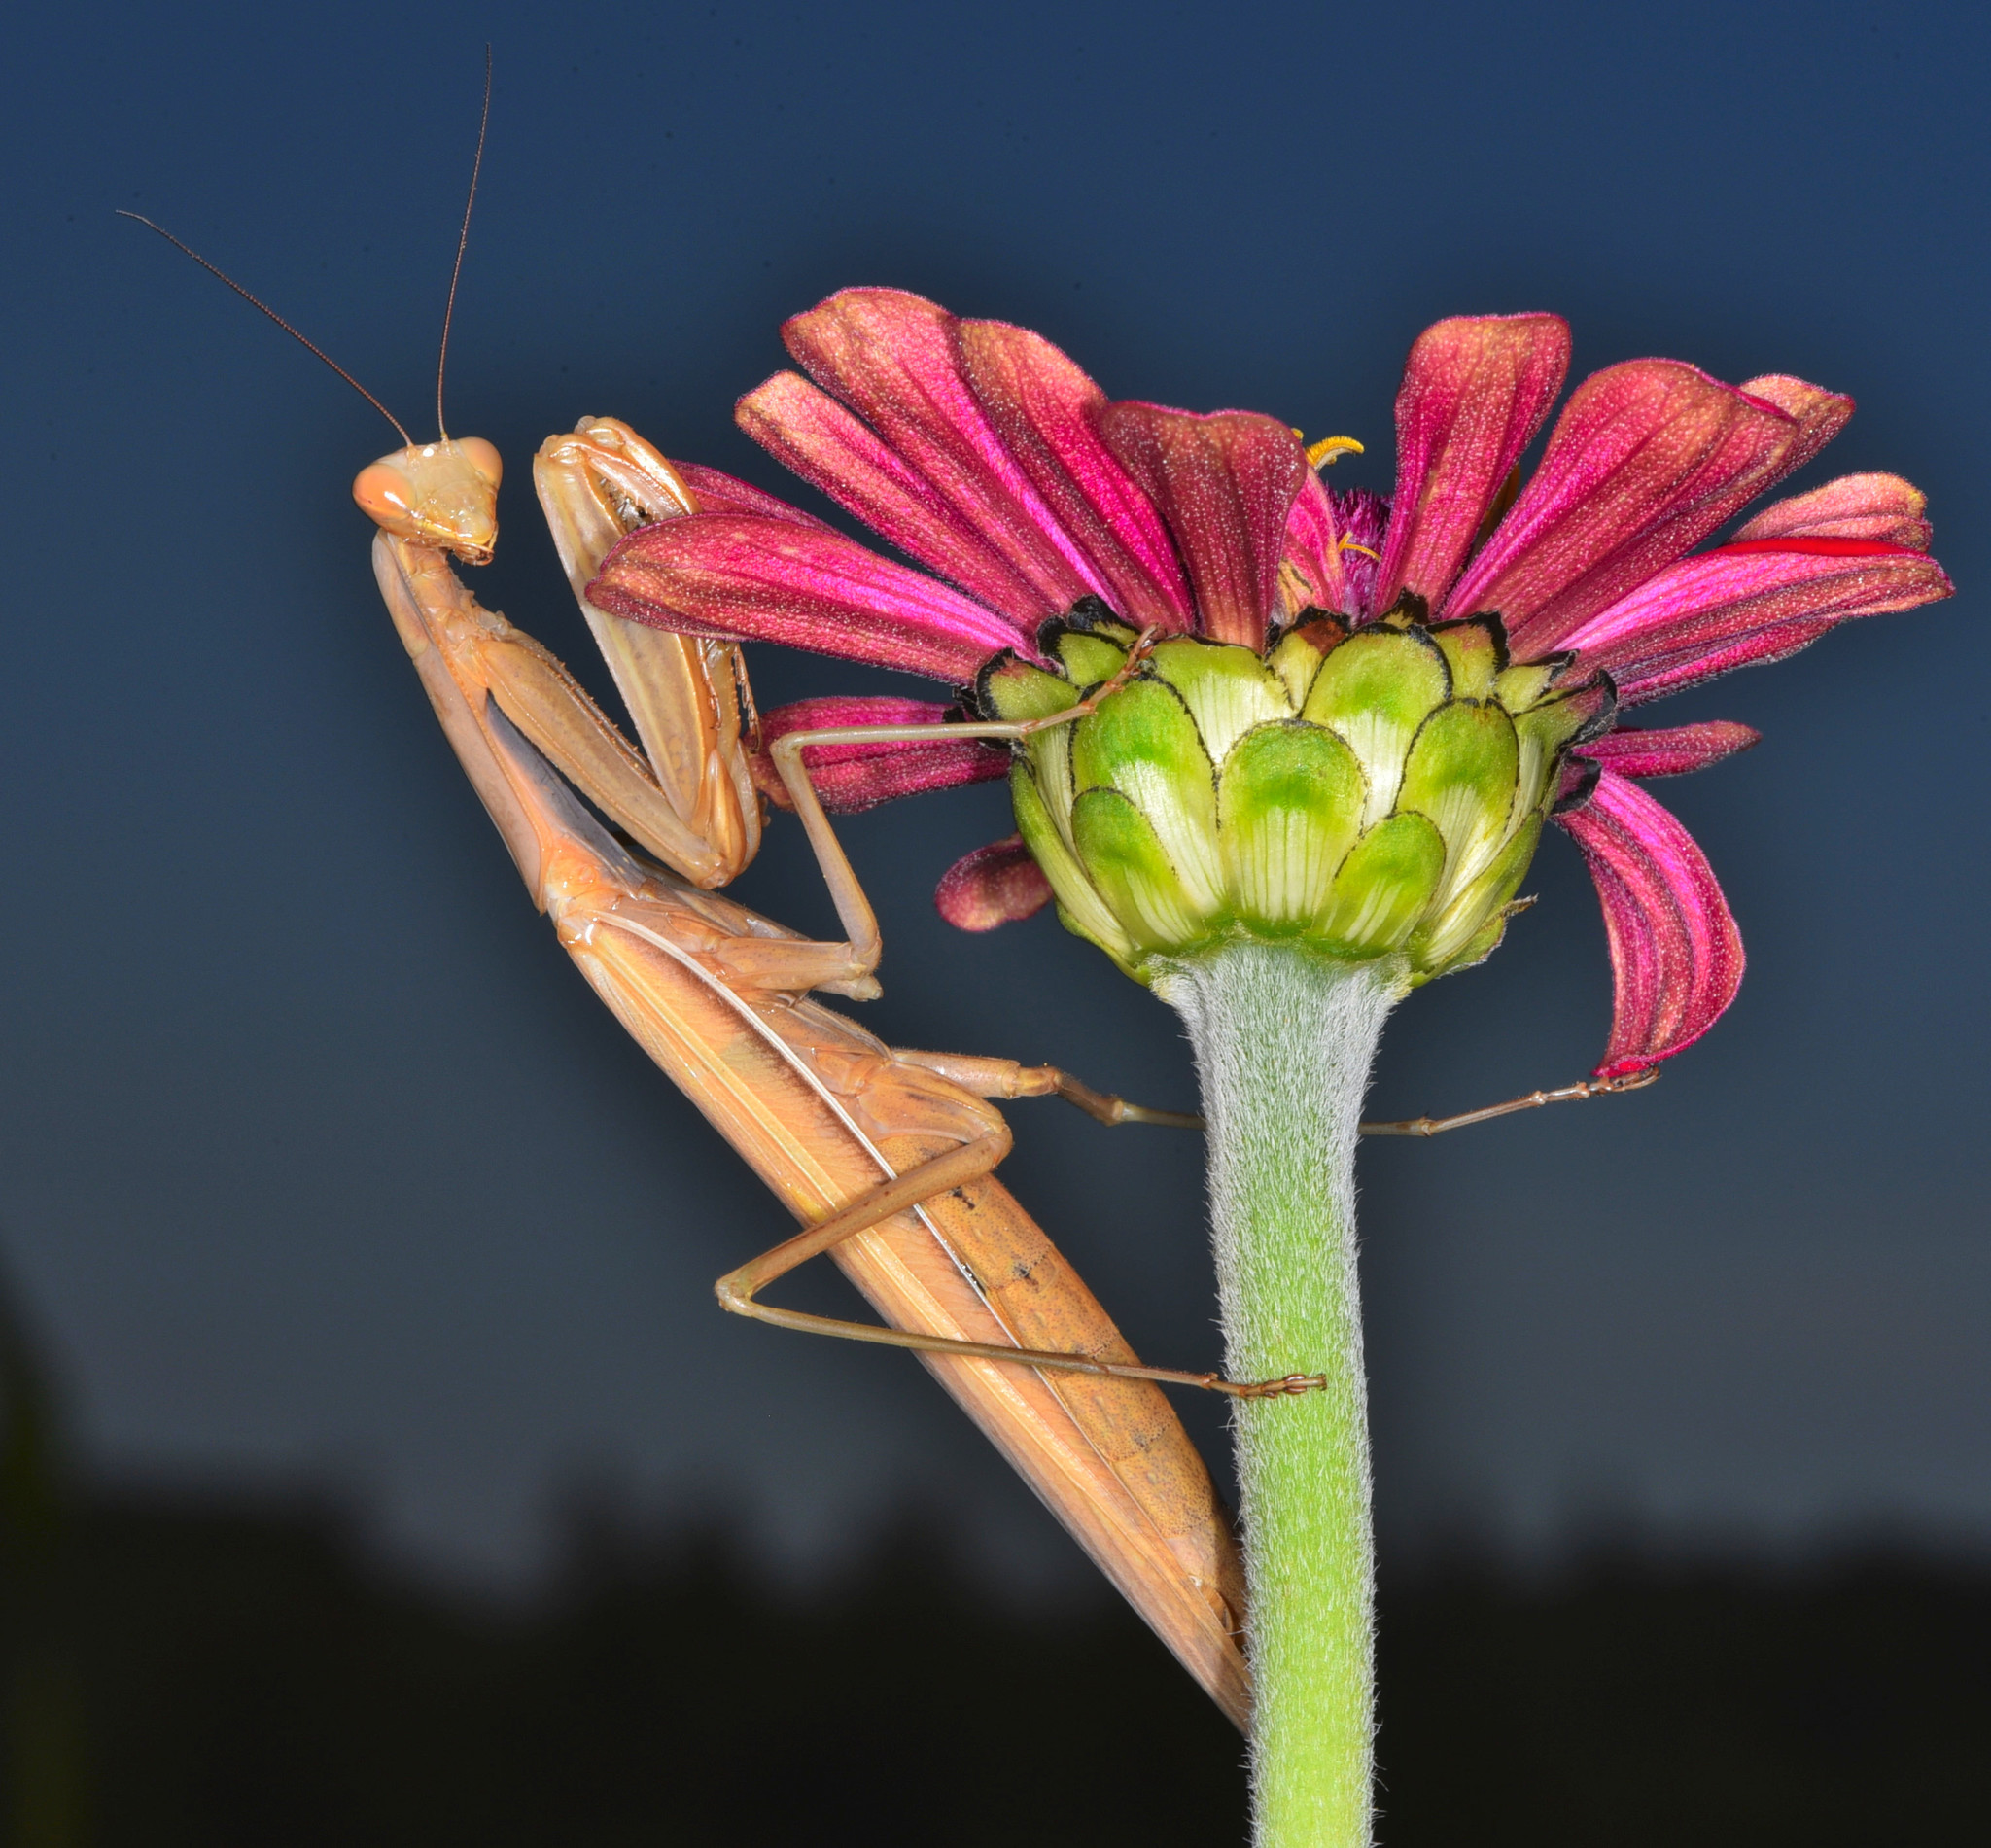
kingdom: Animalia
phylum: Arthropoda
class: Insecta
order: Mantodea
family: Mantidae
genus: Mantis
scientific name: Mantis religiosa
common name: Praying mantis
